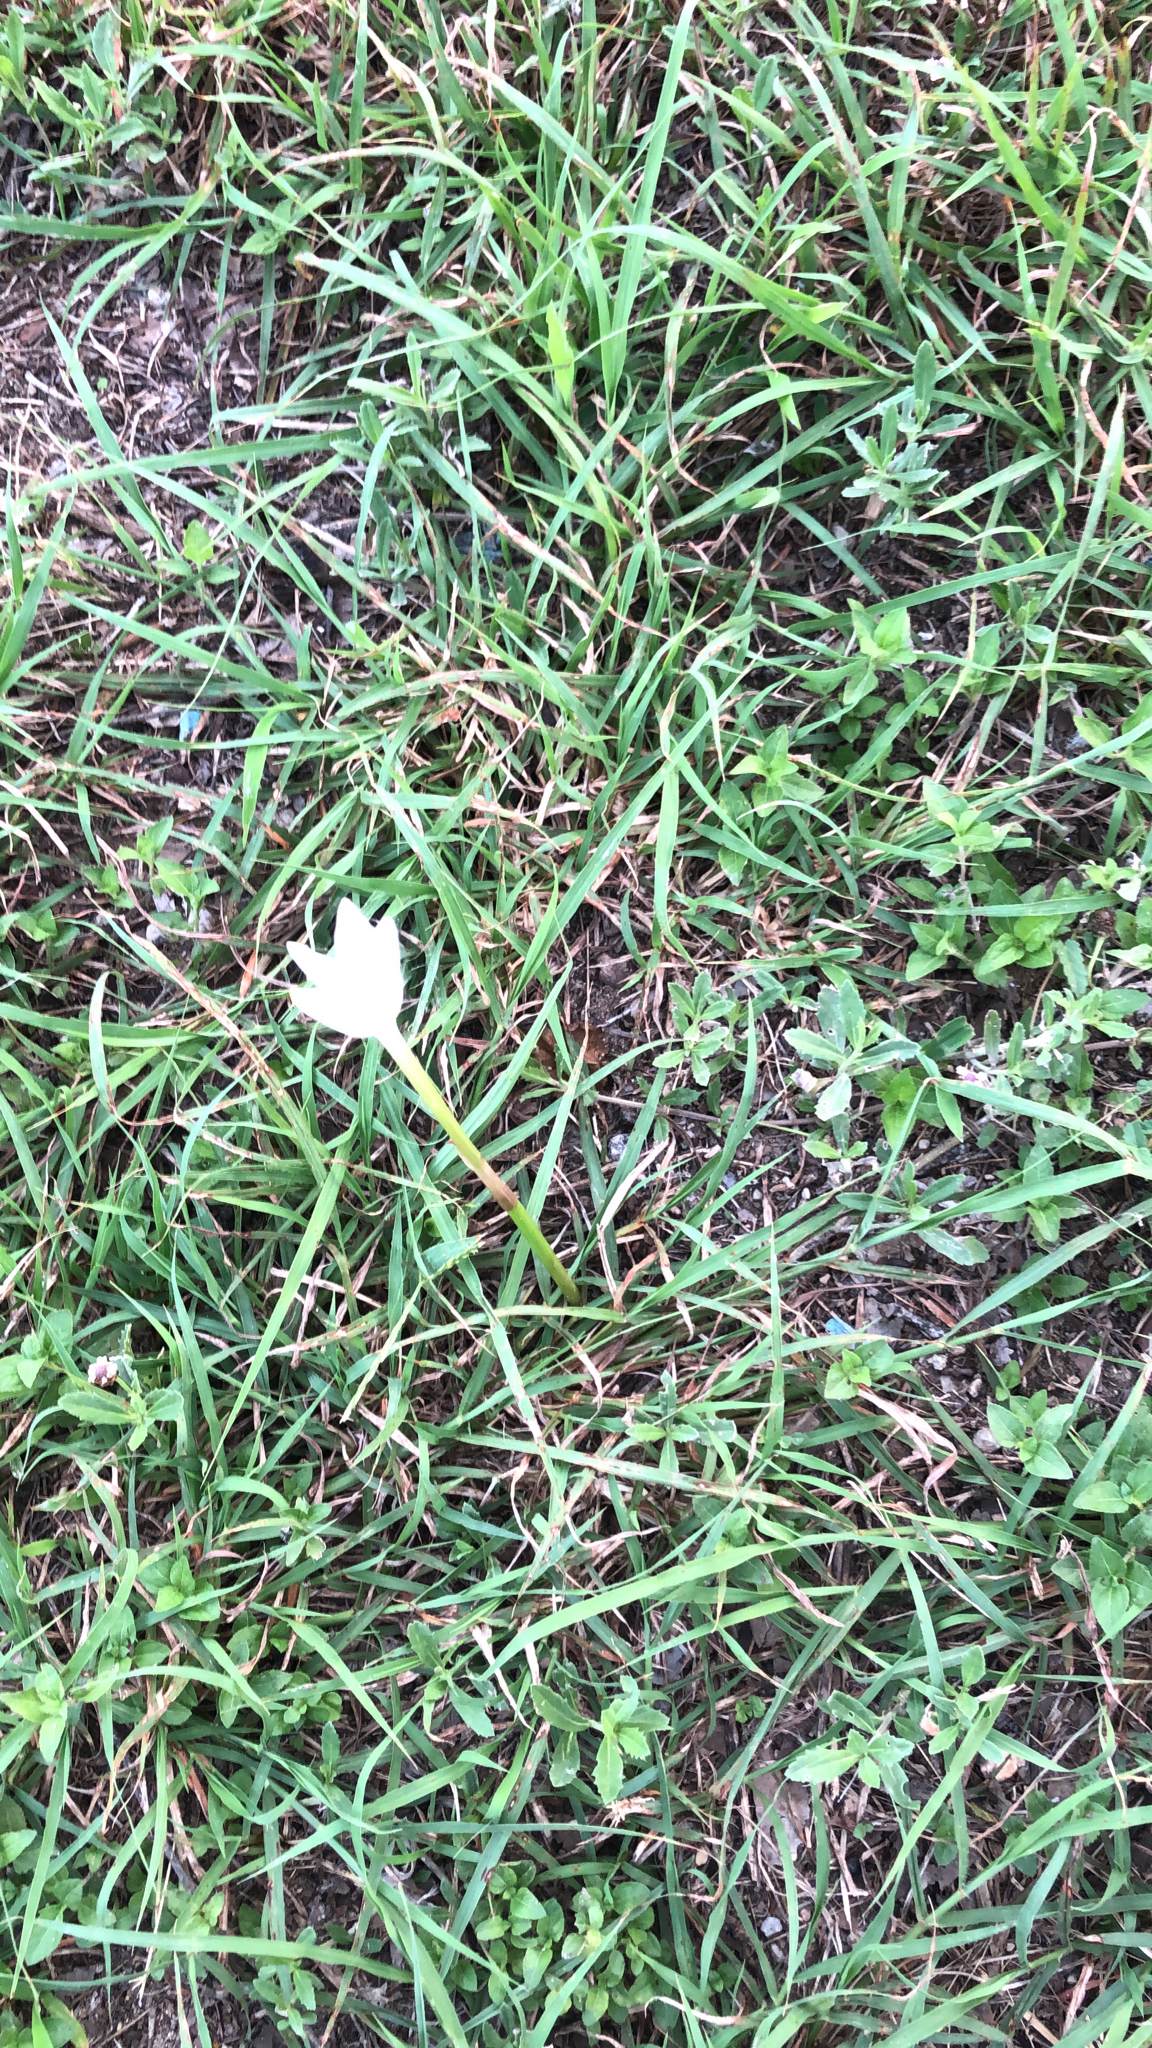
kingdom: Plantae
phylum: Tracheophyta
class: Liliopsida
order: Asparagales
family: Amaryllidaceae
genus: Zephyranthes
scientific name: Zephyranthes chlorosolen
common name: Evening rain-lily
